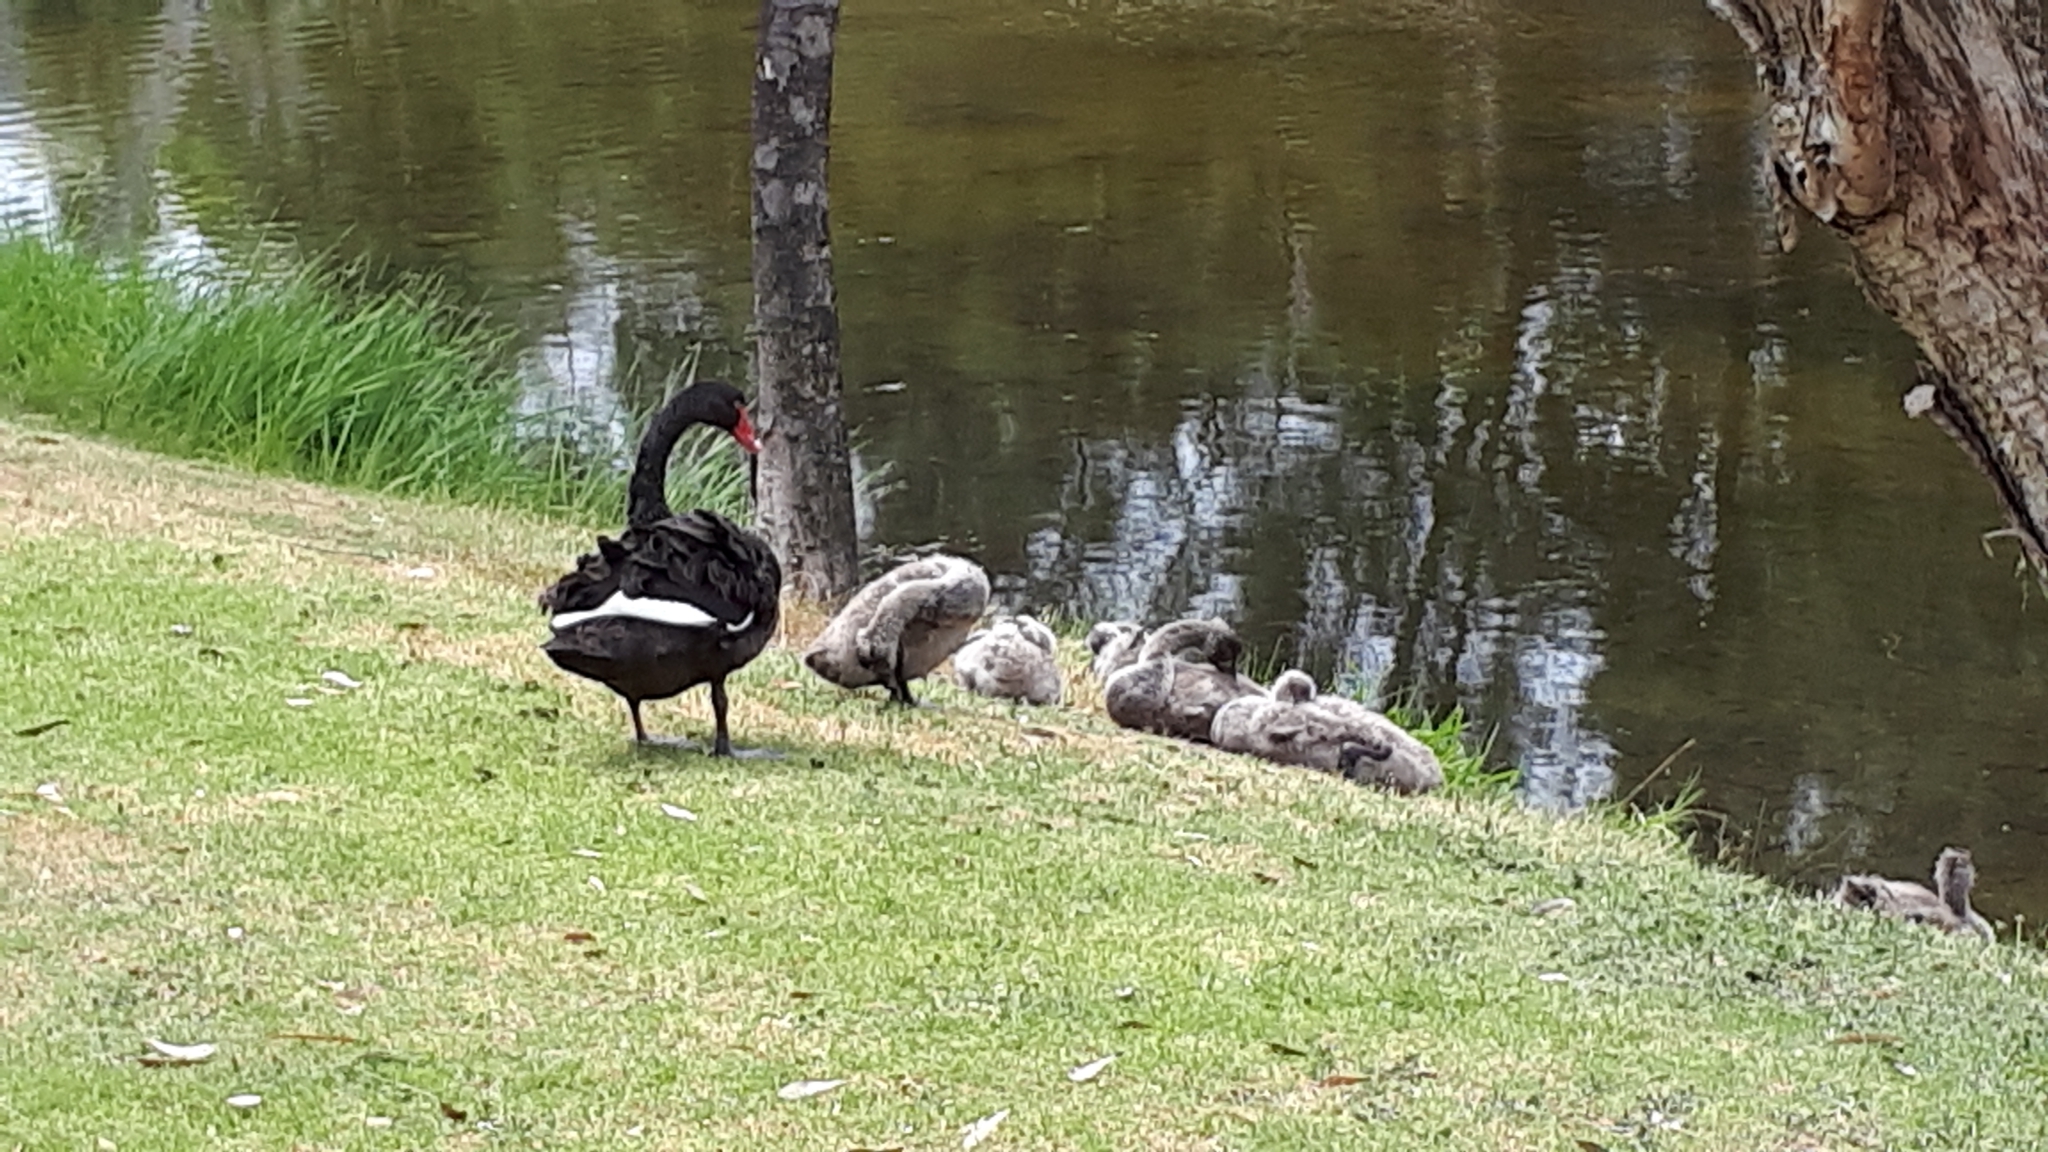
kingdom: Animalia
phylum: Chordata
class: Aves
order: Anseriformes
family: Anatidae
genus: Cygnus
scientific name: Cygnus atratus
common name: Black swan
